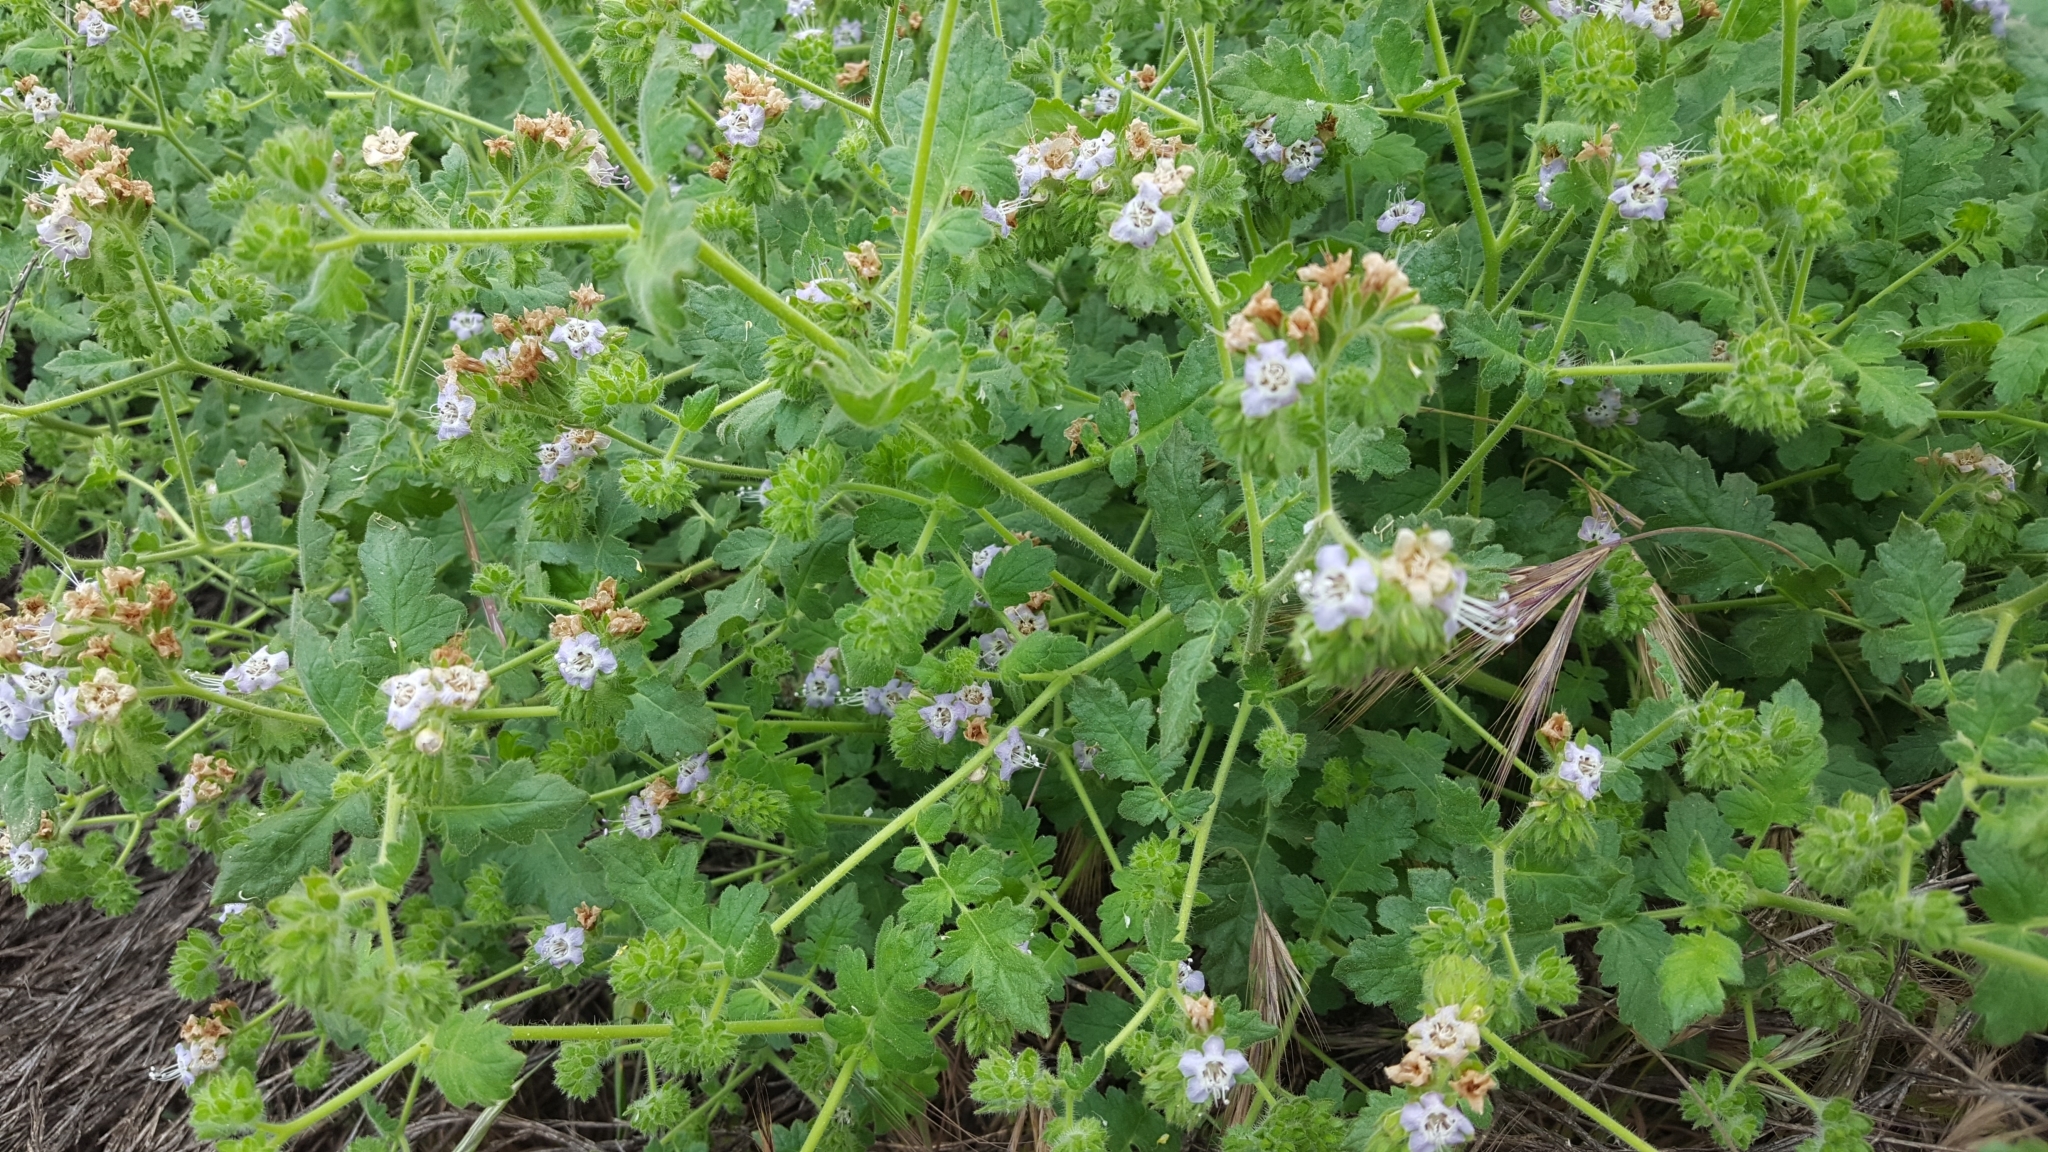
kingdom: Plantae
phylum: Tracheophyta
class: Magnoliopsida
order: Boraginales
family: Hydrophyllaceae
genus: Phacelia
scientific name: Phacelia ramosissima
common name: Branching phacelia
